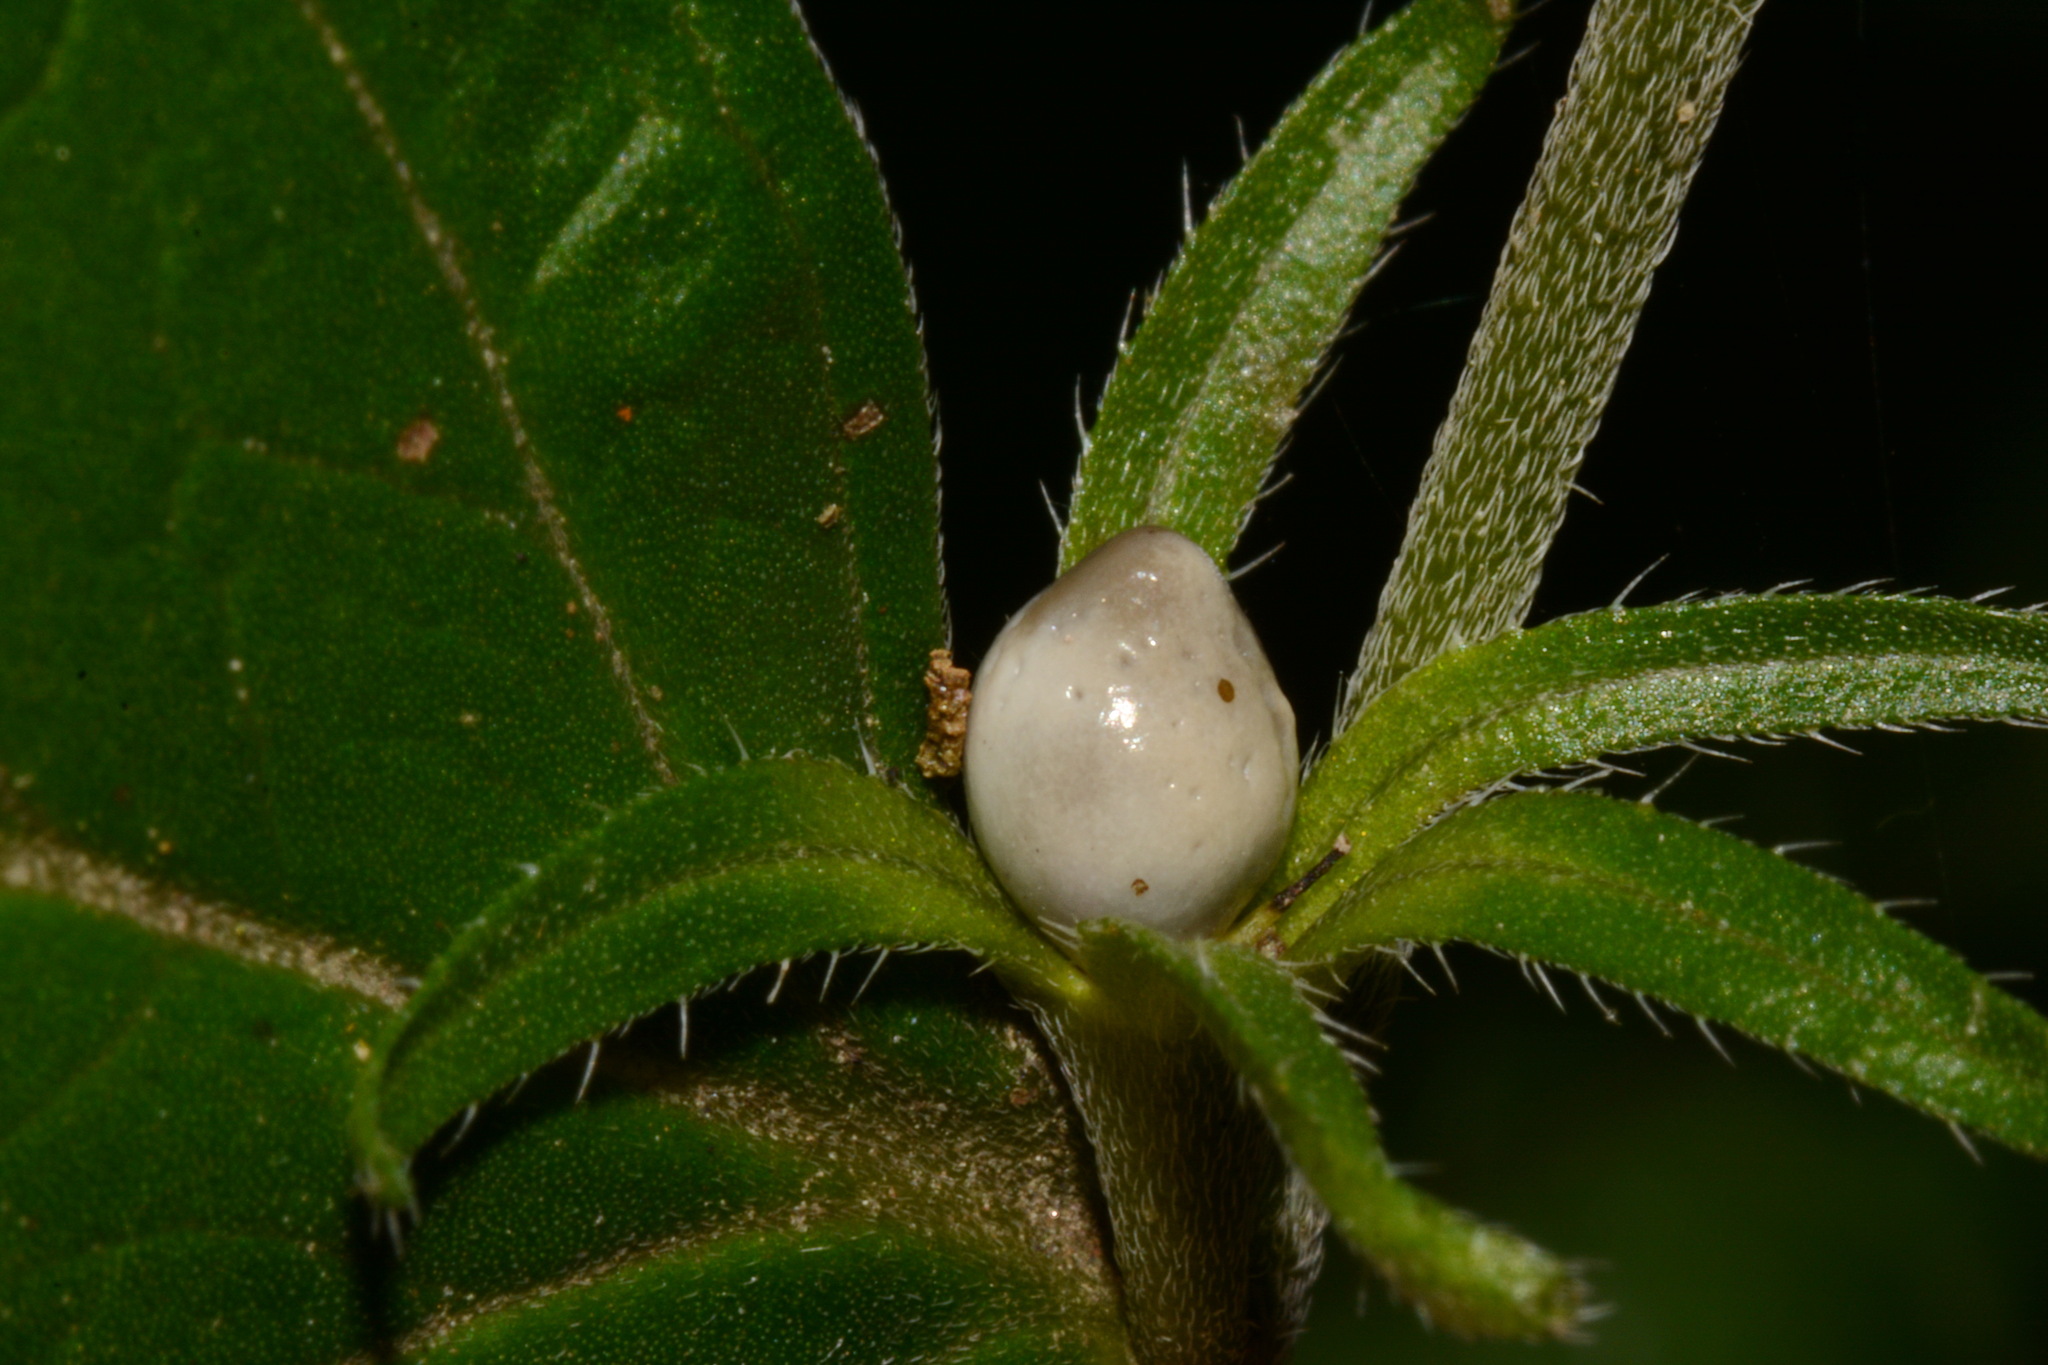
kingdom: Plantae
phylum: Tracheophyta
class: Magnoliopsida
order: Boraginales
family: Boraginaceae
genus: Lithospermum
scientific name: Lithospermum latifolium
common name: American gromwell
